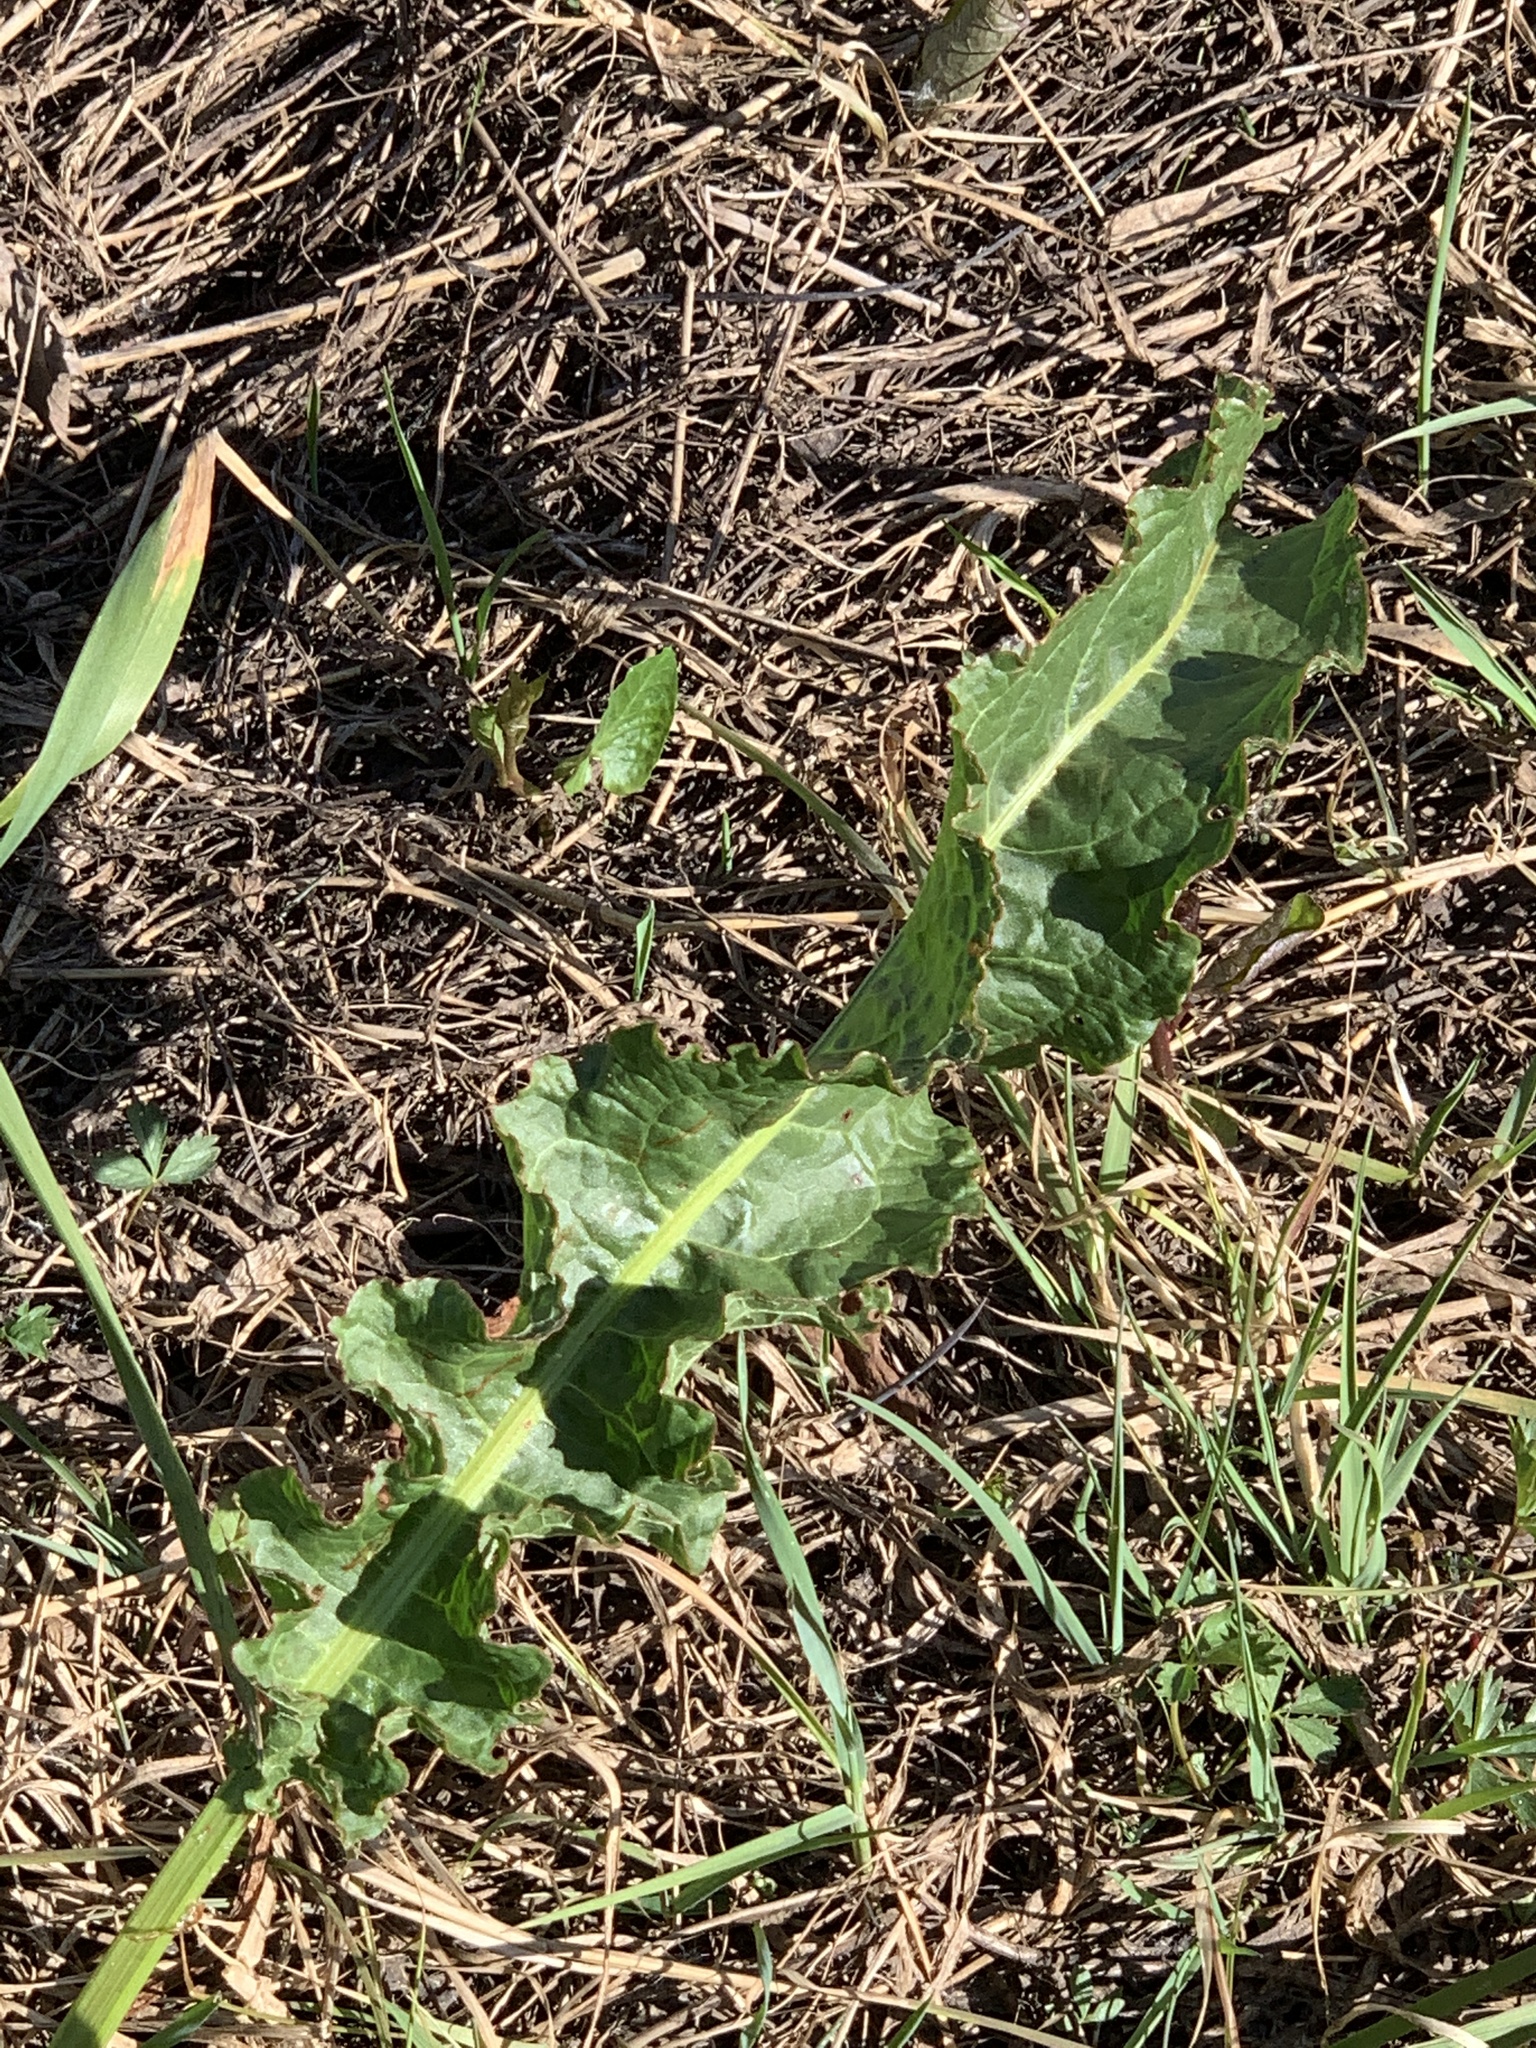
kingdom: Plantae
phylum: Tracheophyta
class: Magnoliopsida
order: Caryophyllales
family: Polygonaceae
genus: Rumex
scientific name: Rumex crispus
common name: Curled dock
